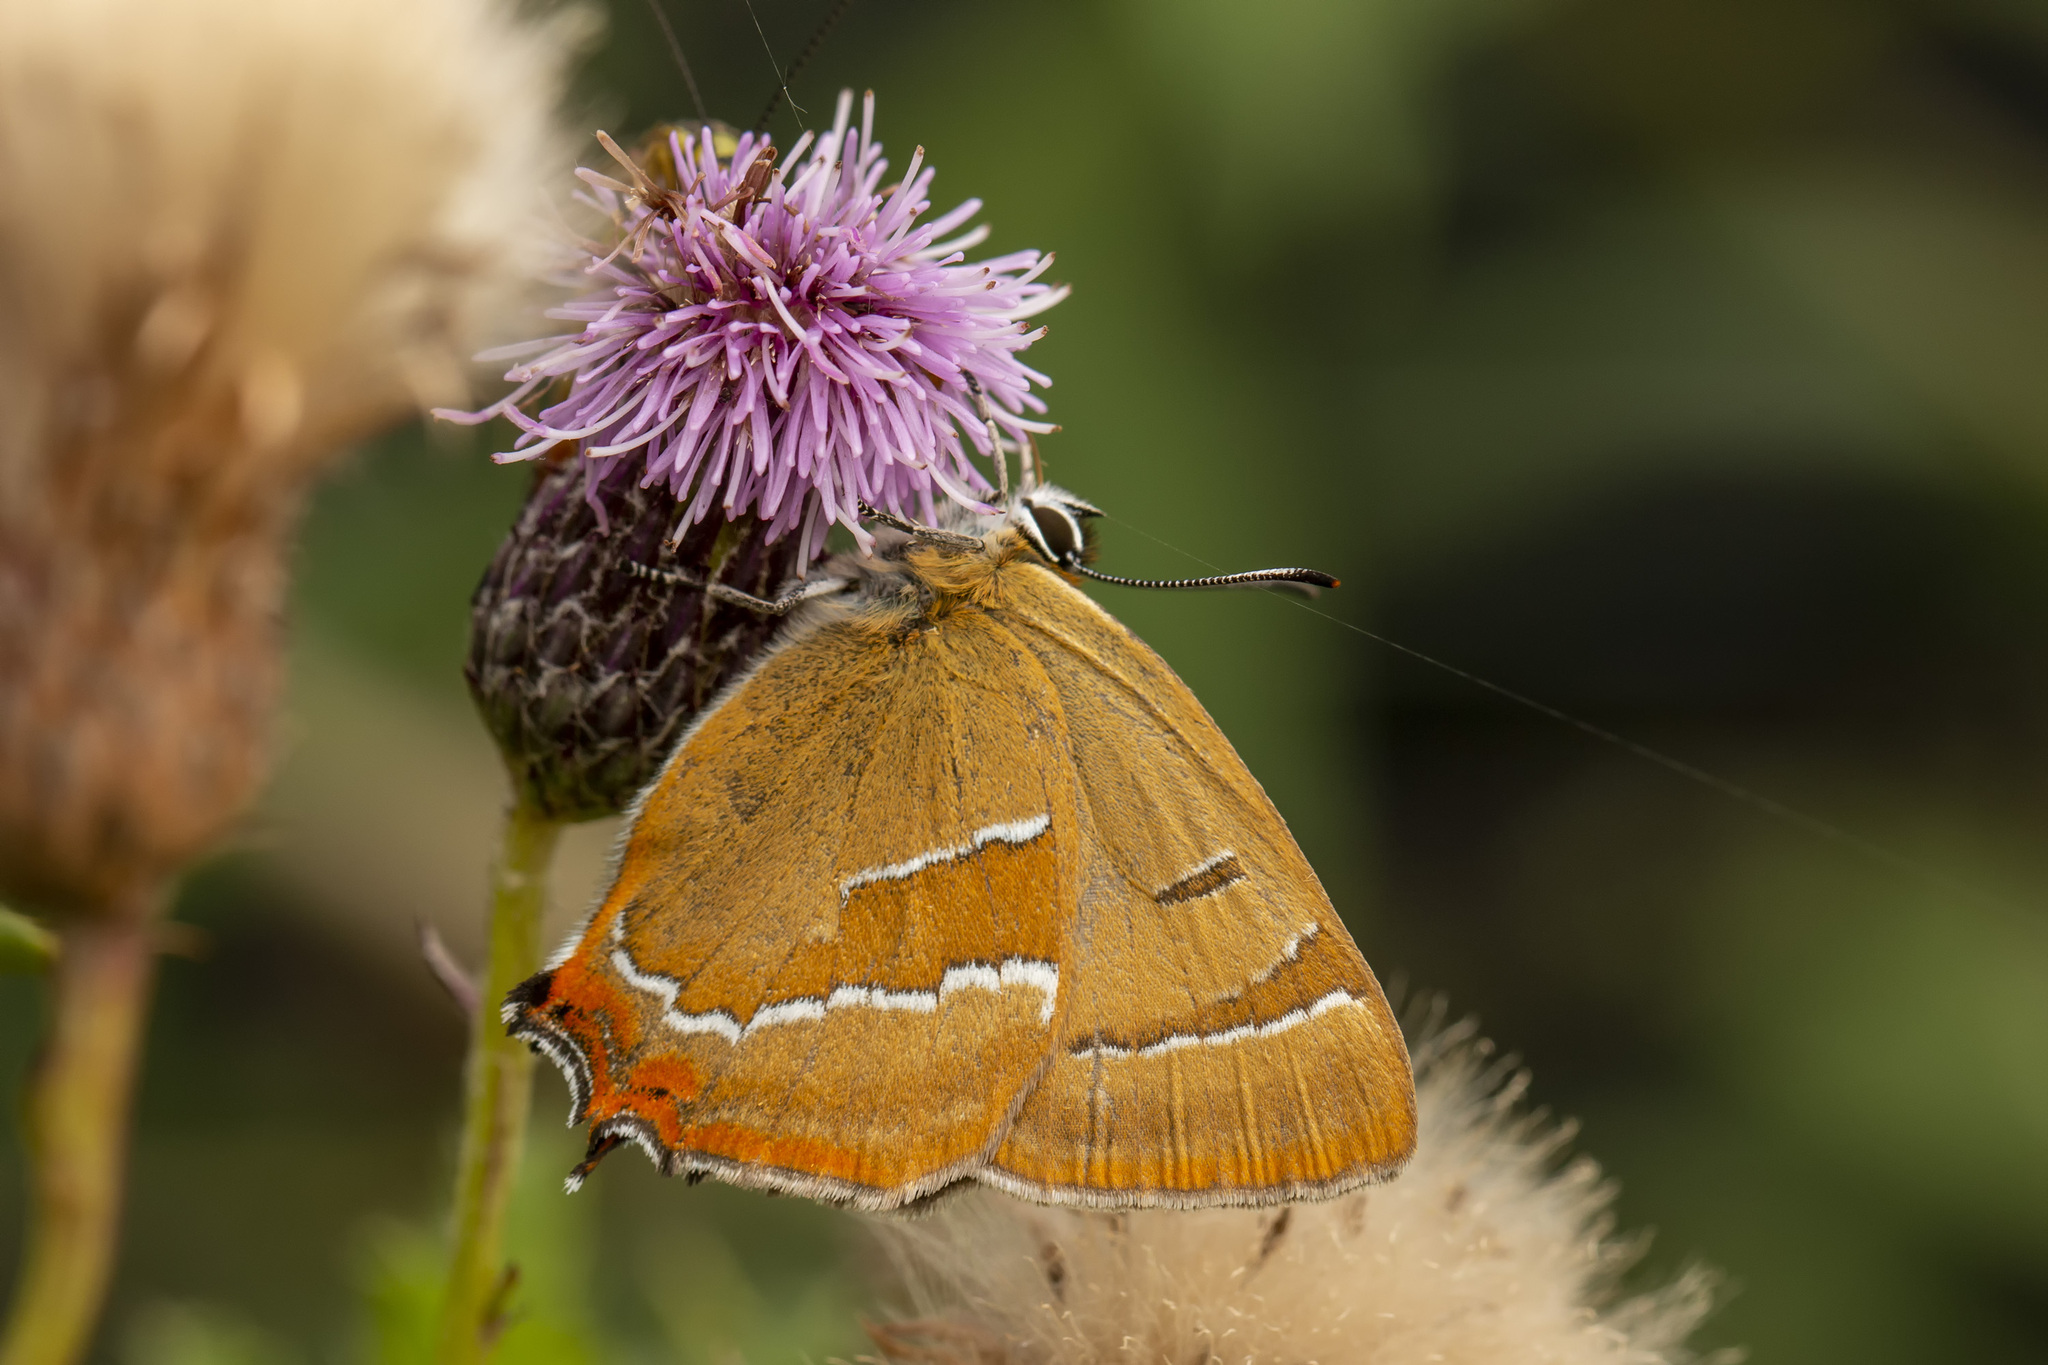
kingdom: Animalia
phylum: Arthropoda
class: Insecta
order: Lepidoptera
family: Lycaenidae
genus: Thecla
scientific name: Thecla betulae
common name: Brown hairstreak
